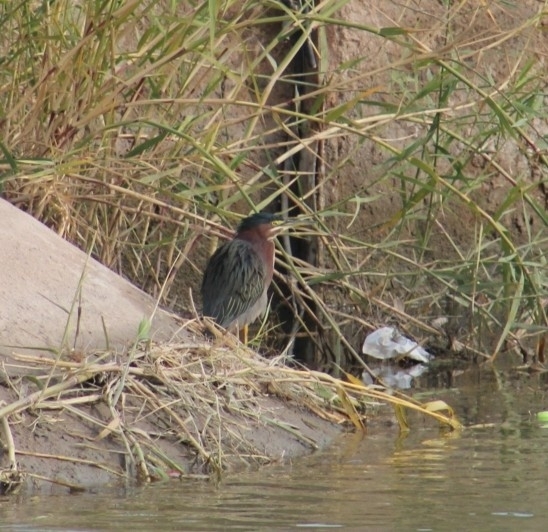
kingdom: Animalia
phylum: Chordata
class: Aves
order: Pelecaniformes
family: Ardeidae
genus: Butorides
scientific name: Butorides virescens
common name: Green heron
